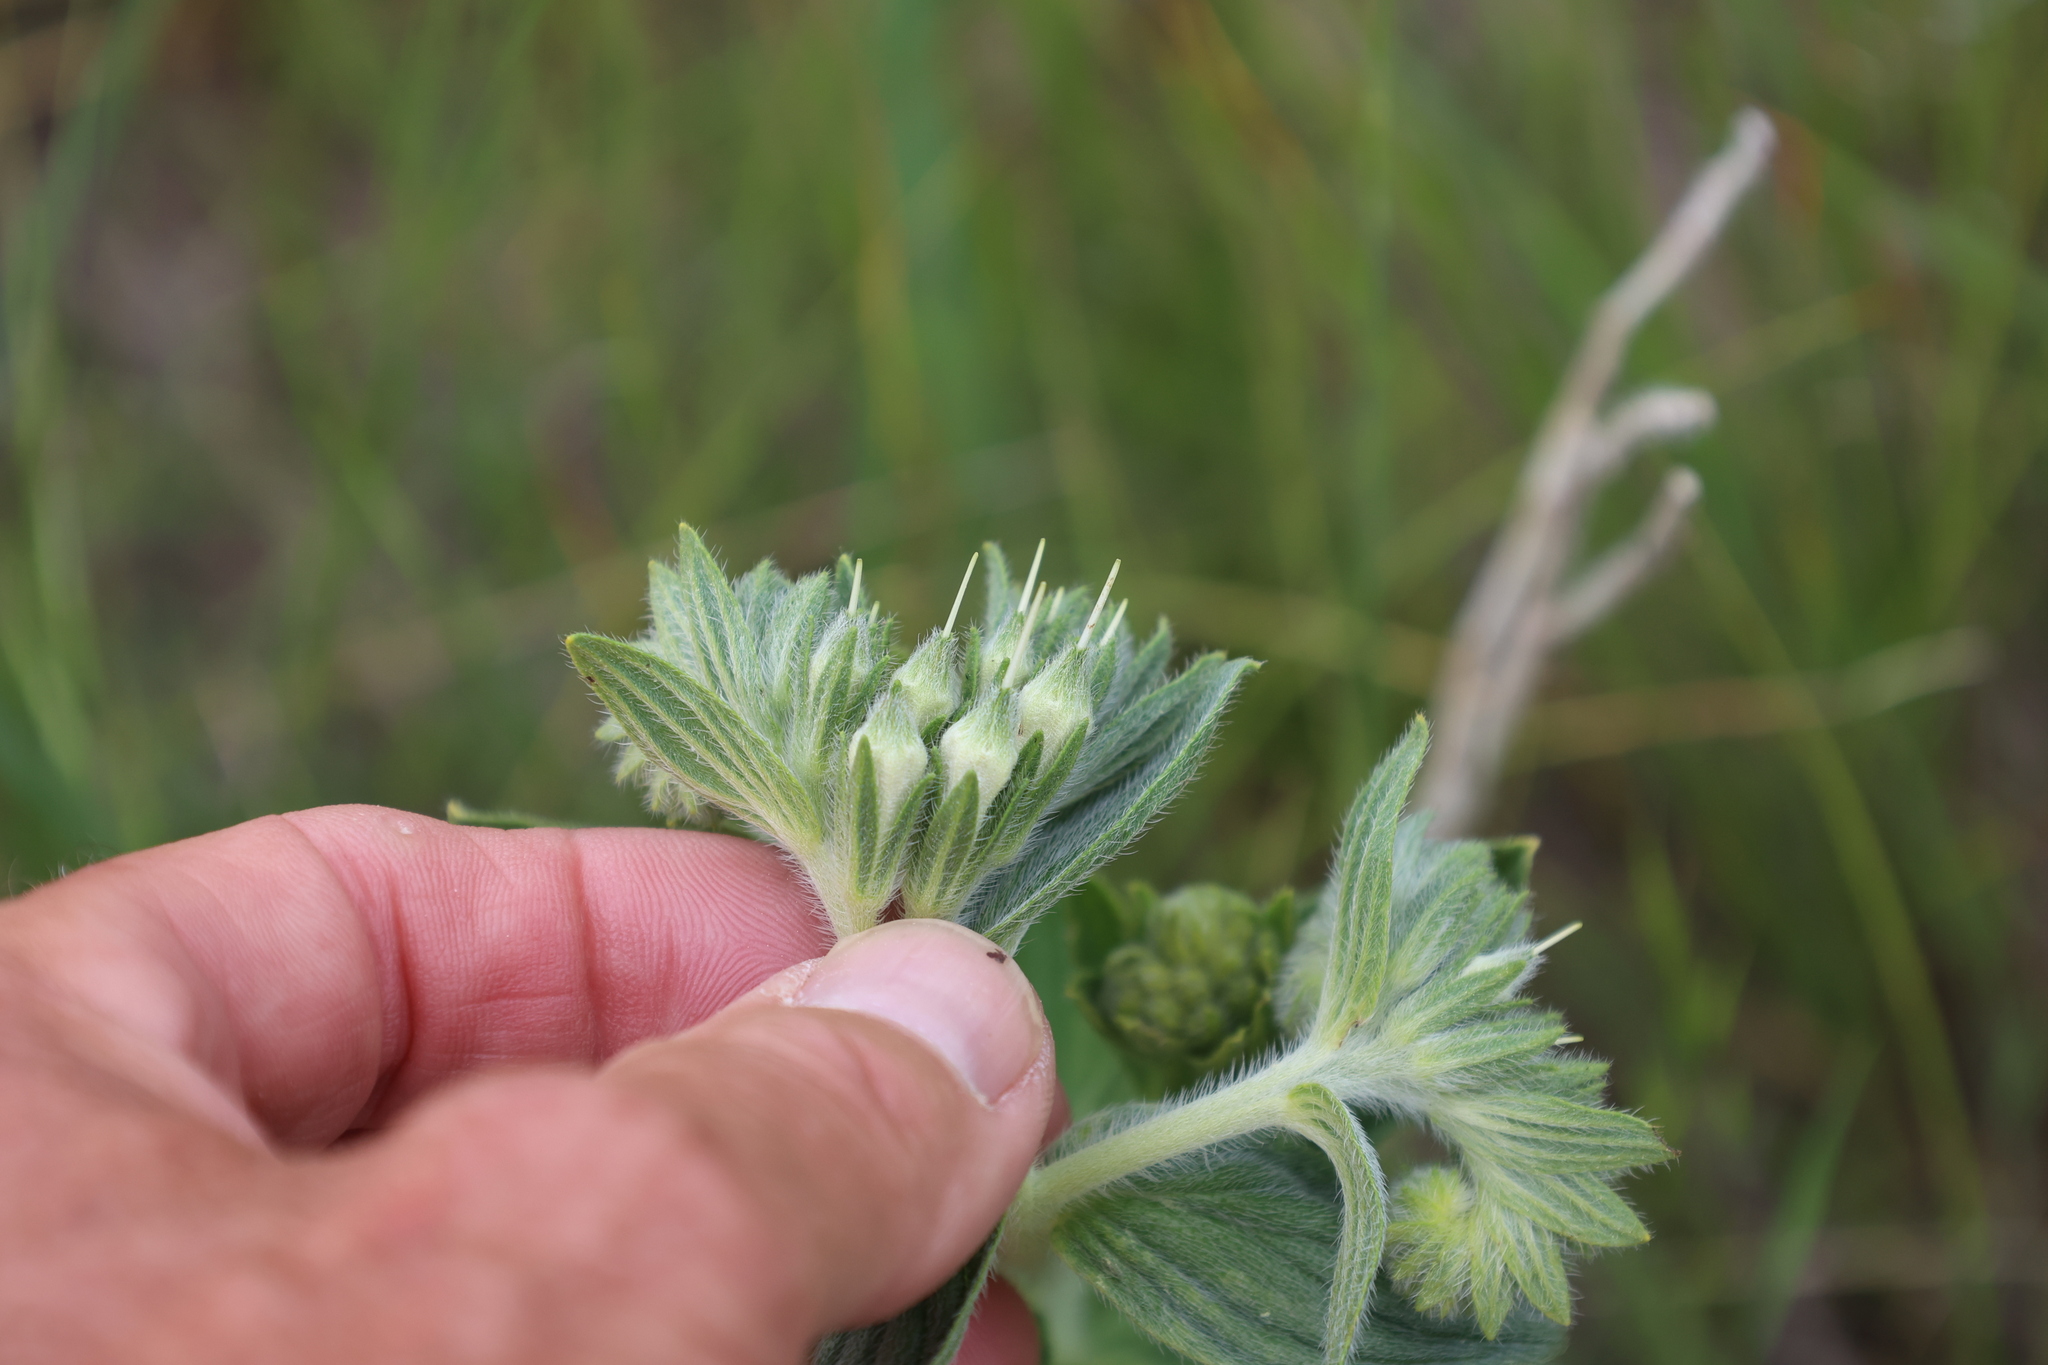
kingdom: Plantae
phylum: Tracheophyta
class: Magnoliopsida
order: Boraginales
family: Boraginaceae
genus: Lithospermum
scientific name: Lithospermum occidentale
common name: Western false gromwell
